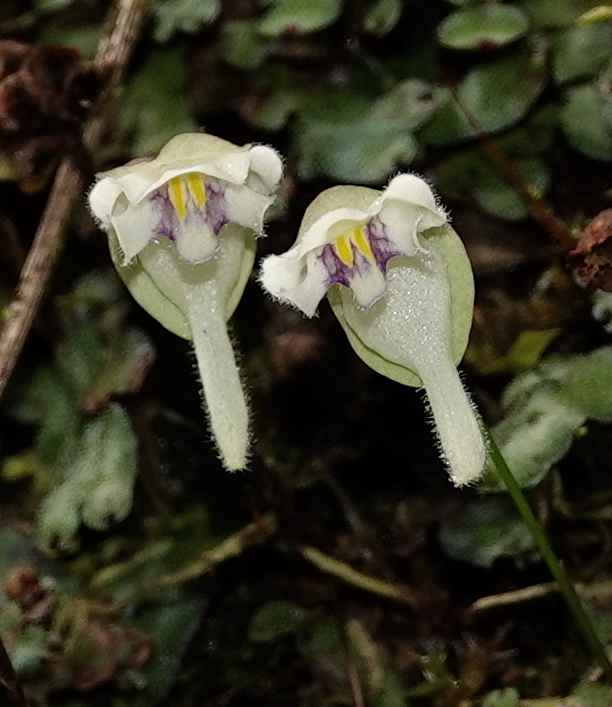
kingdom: Plantae
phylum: Tracheophyta
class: Magnoliopsida
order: Lamiales
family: Lentibulariaceae
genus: Utricularia
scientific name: Utricularia jamesoniana
